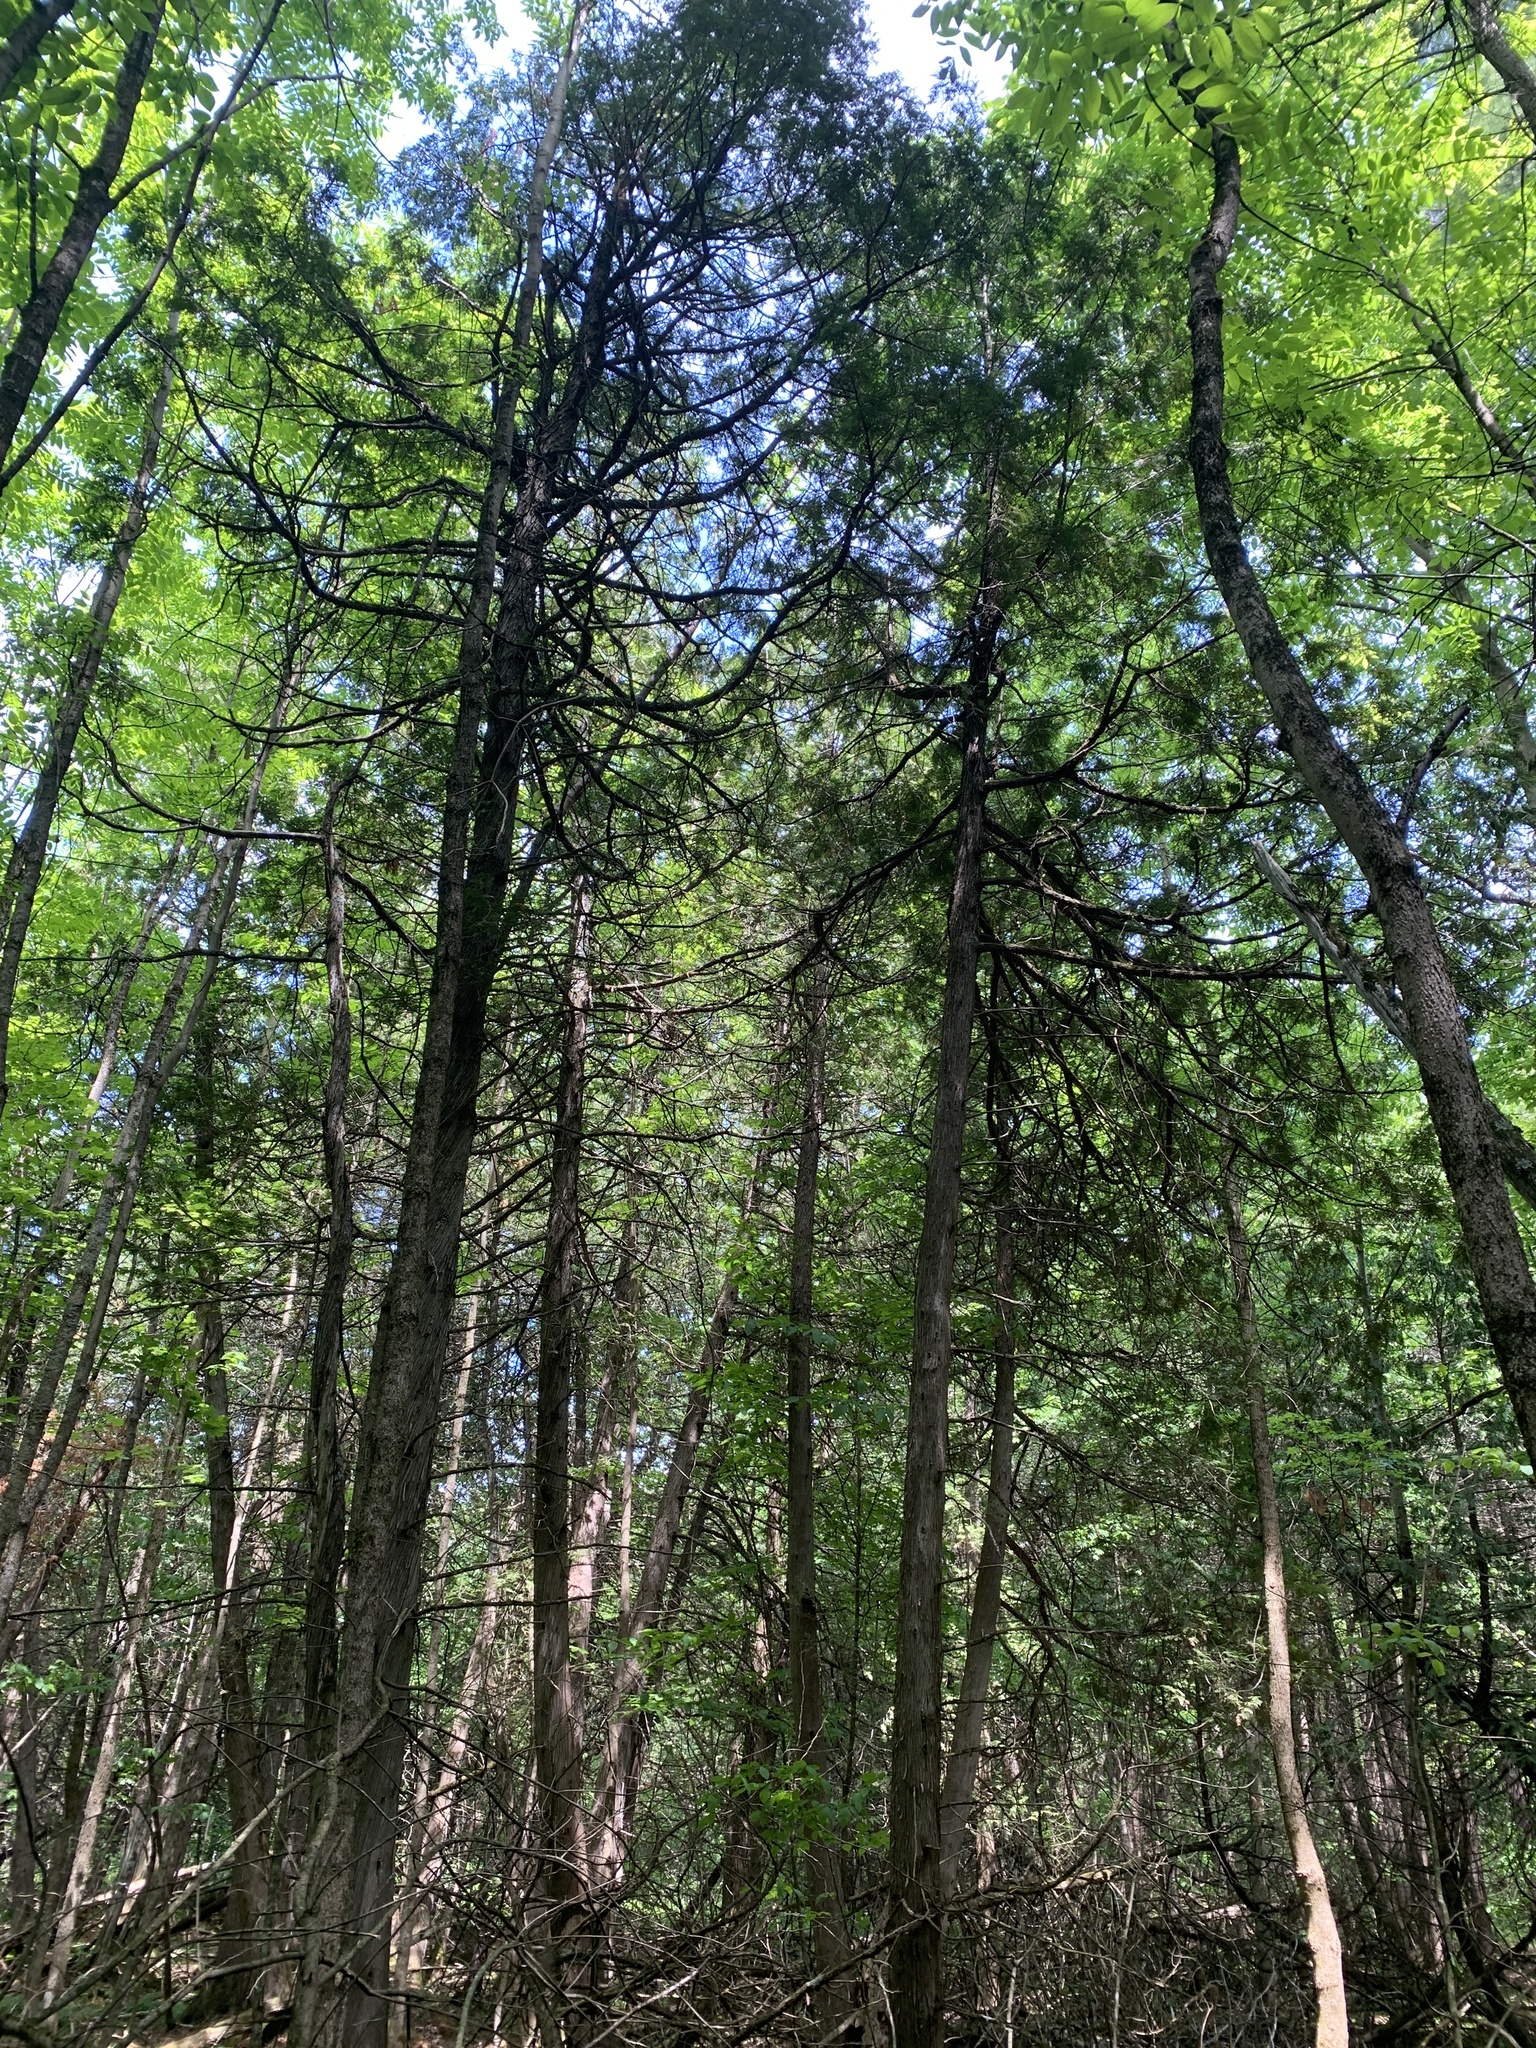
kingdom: Plantae
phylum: Tracheophyta
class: Pinopsida
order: Pinales
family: Cupressaceae
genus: Thuja
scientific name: Thuja occidentalis
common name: Northern white-cedar
